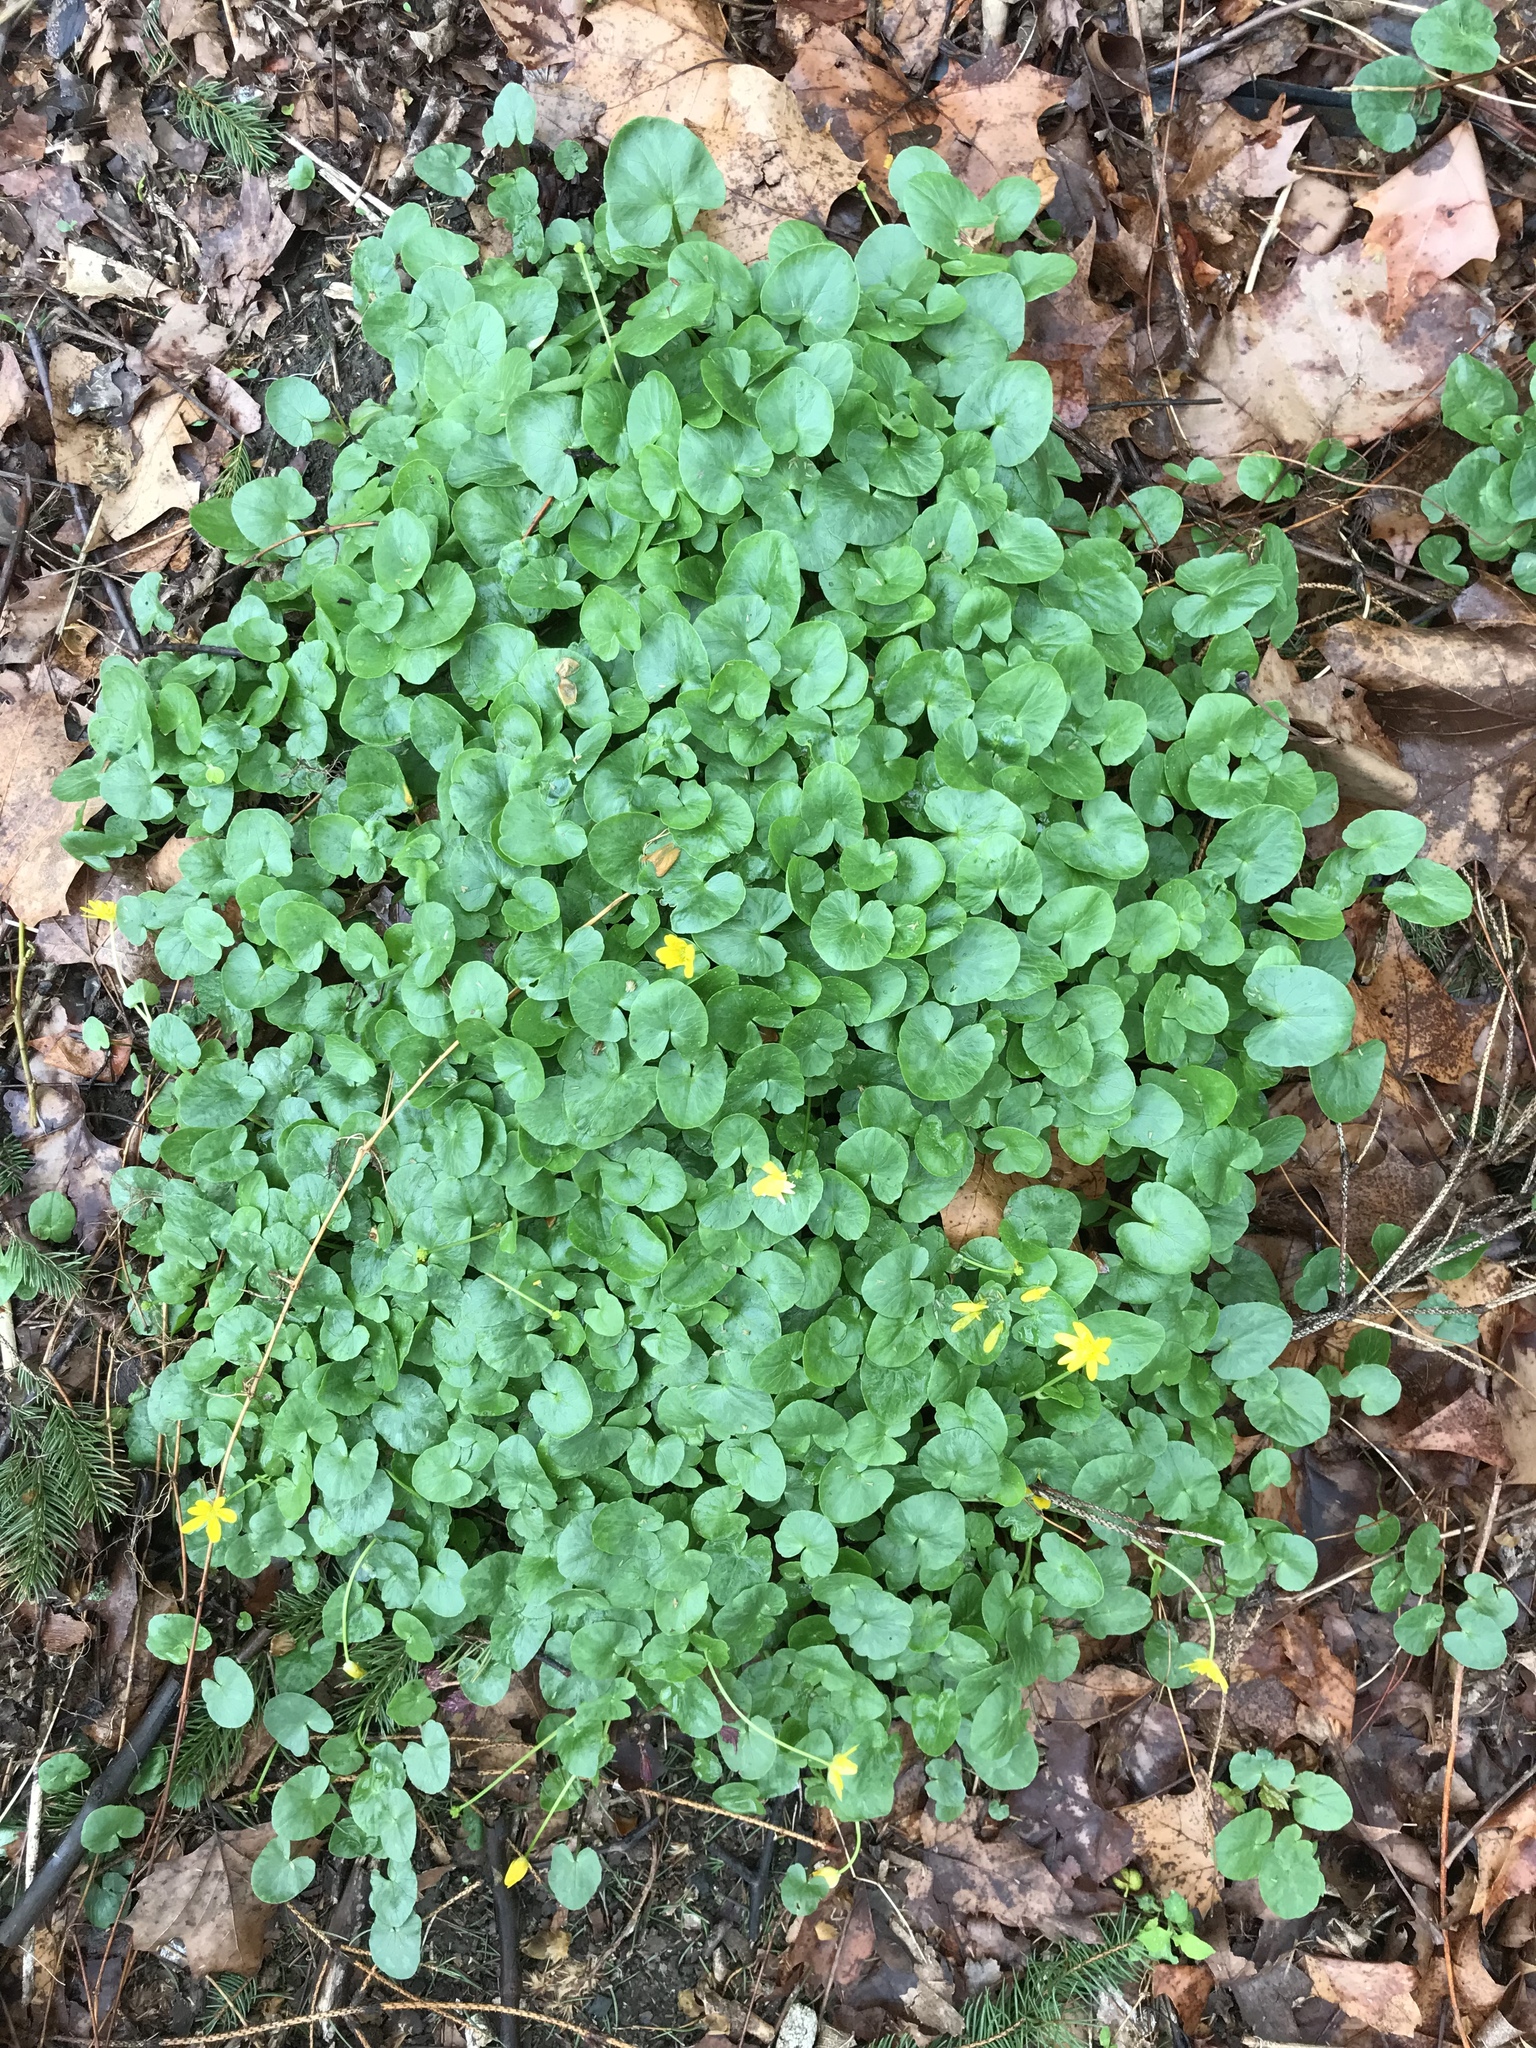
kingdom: Plantae
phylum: Tracheophyta
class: Magnoliopsida
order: Ranunculales
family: Ranunculaceae
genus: Ficaria
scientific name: Ficaria verna
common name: Lesser celandine
